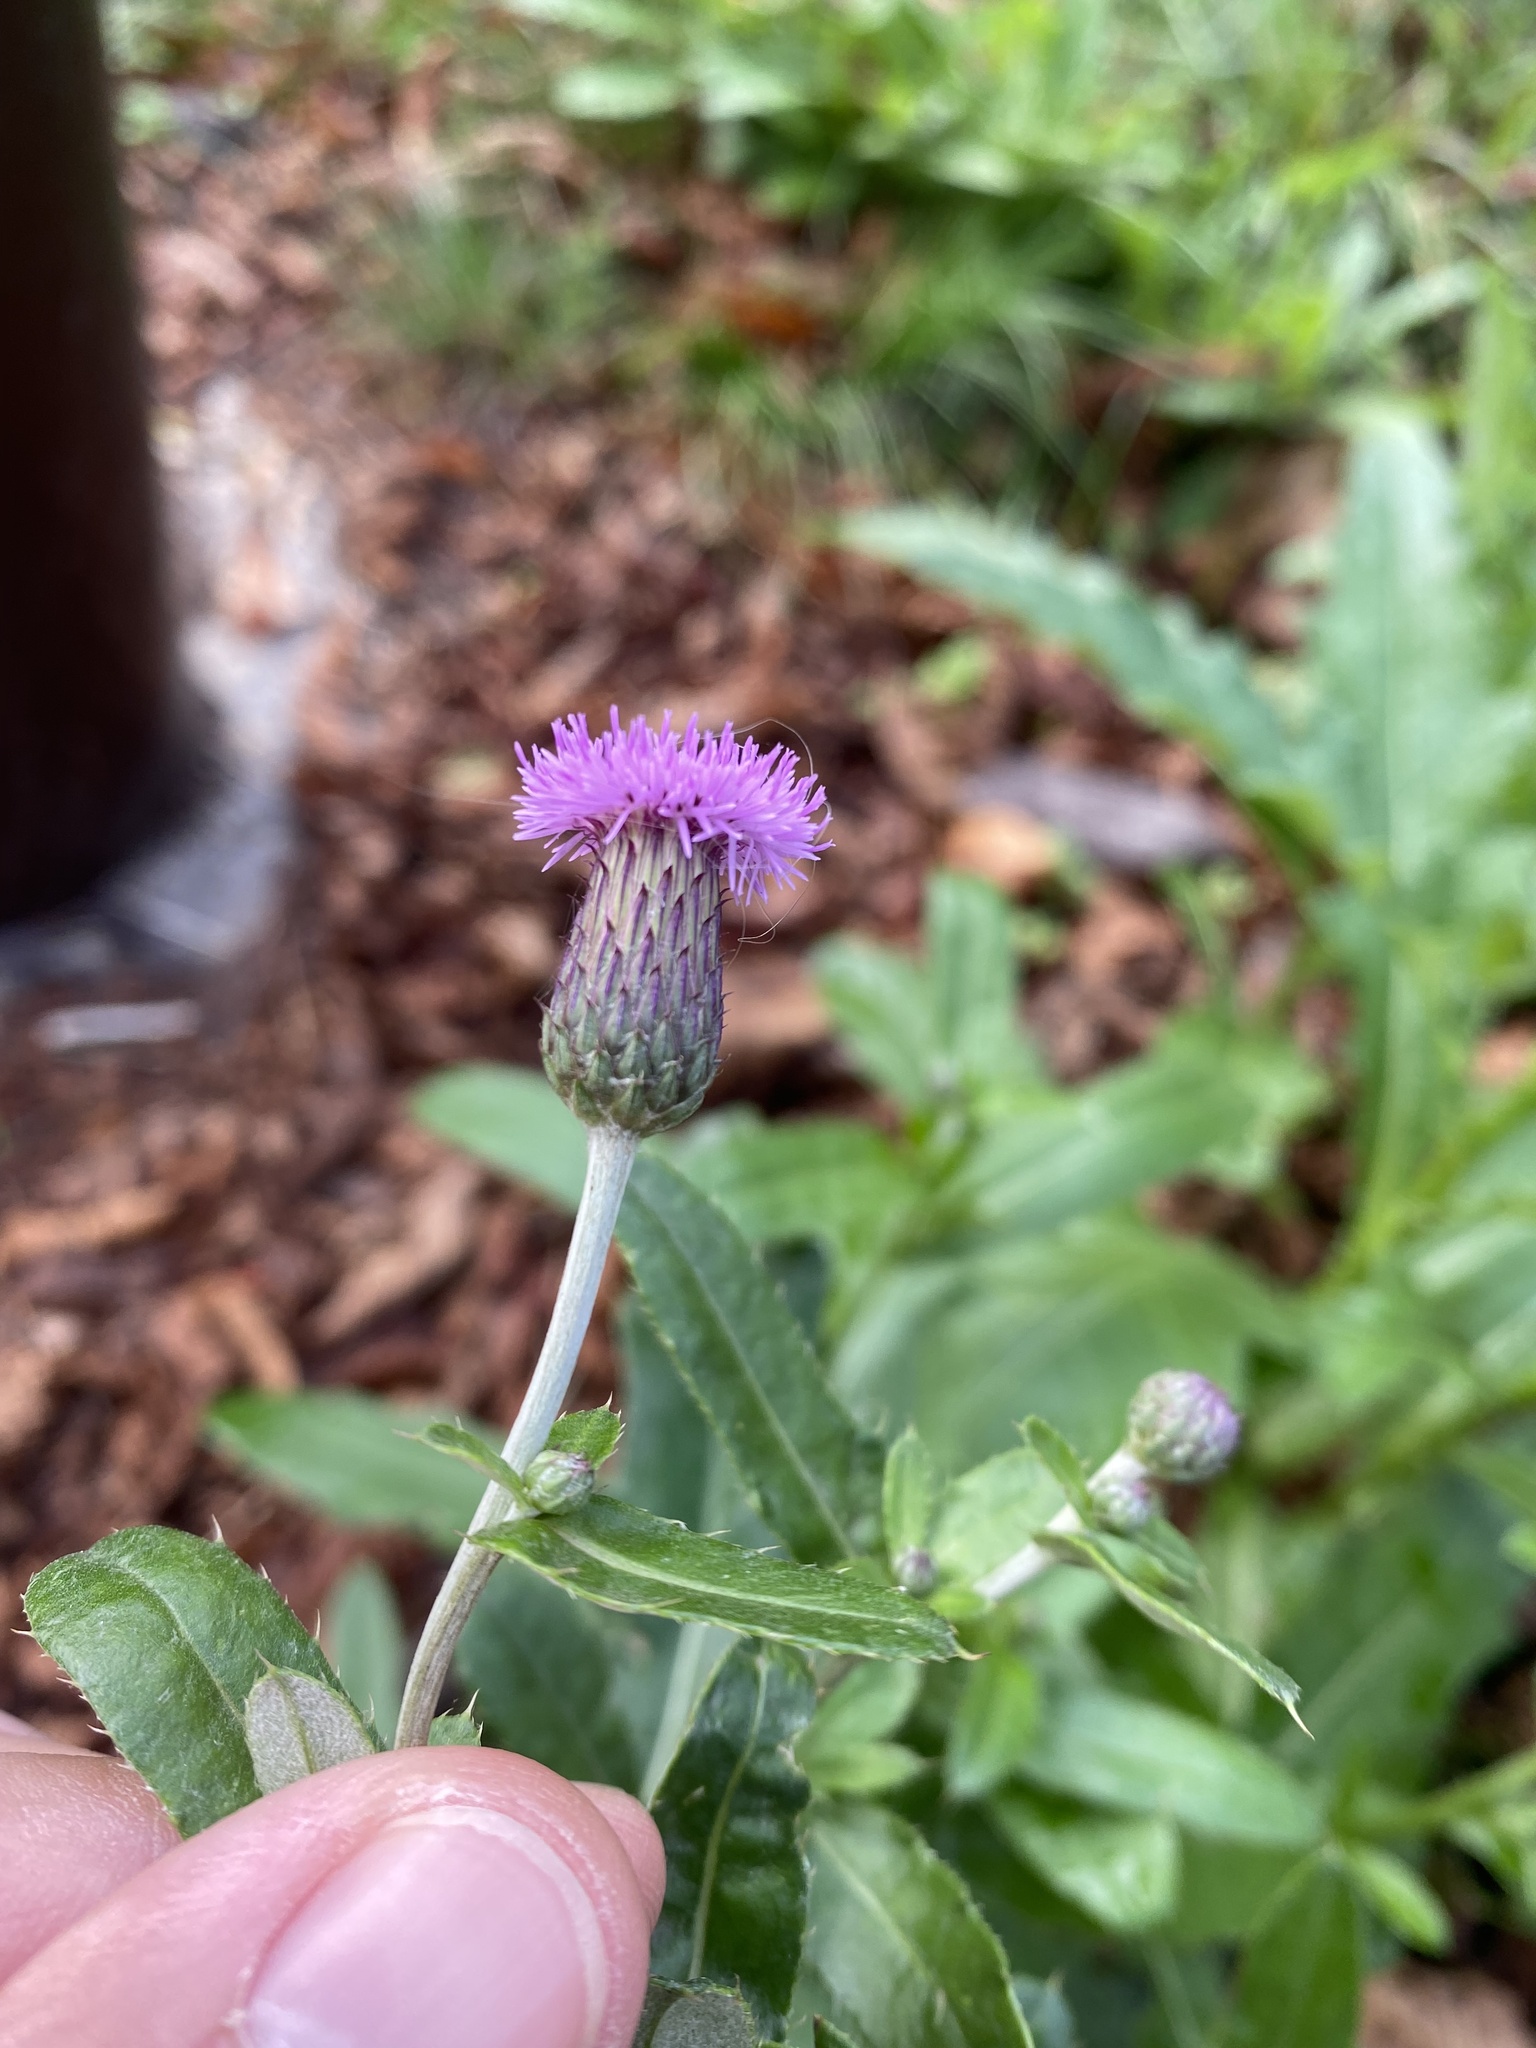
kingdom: Plantae
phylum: Tracheophyta
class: Magnoliopsida
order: Asterales
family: Asteraceae
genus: Cirsium
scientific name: Cirsium arvense
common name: Creeping thistle
